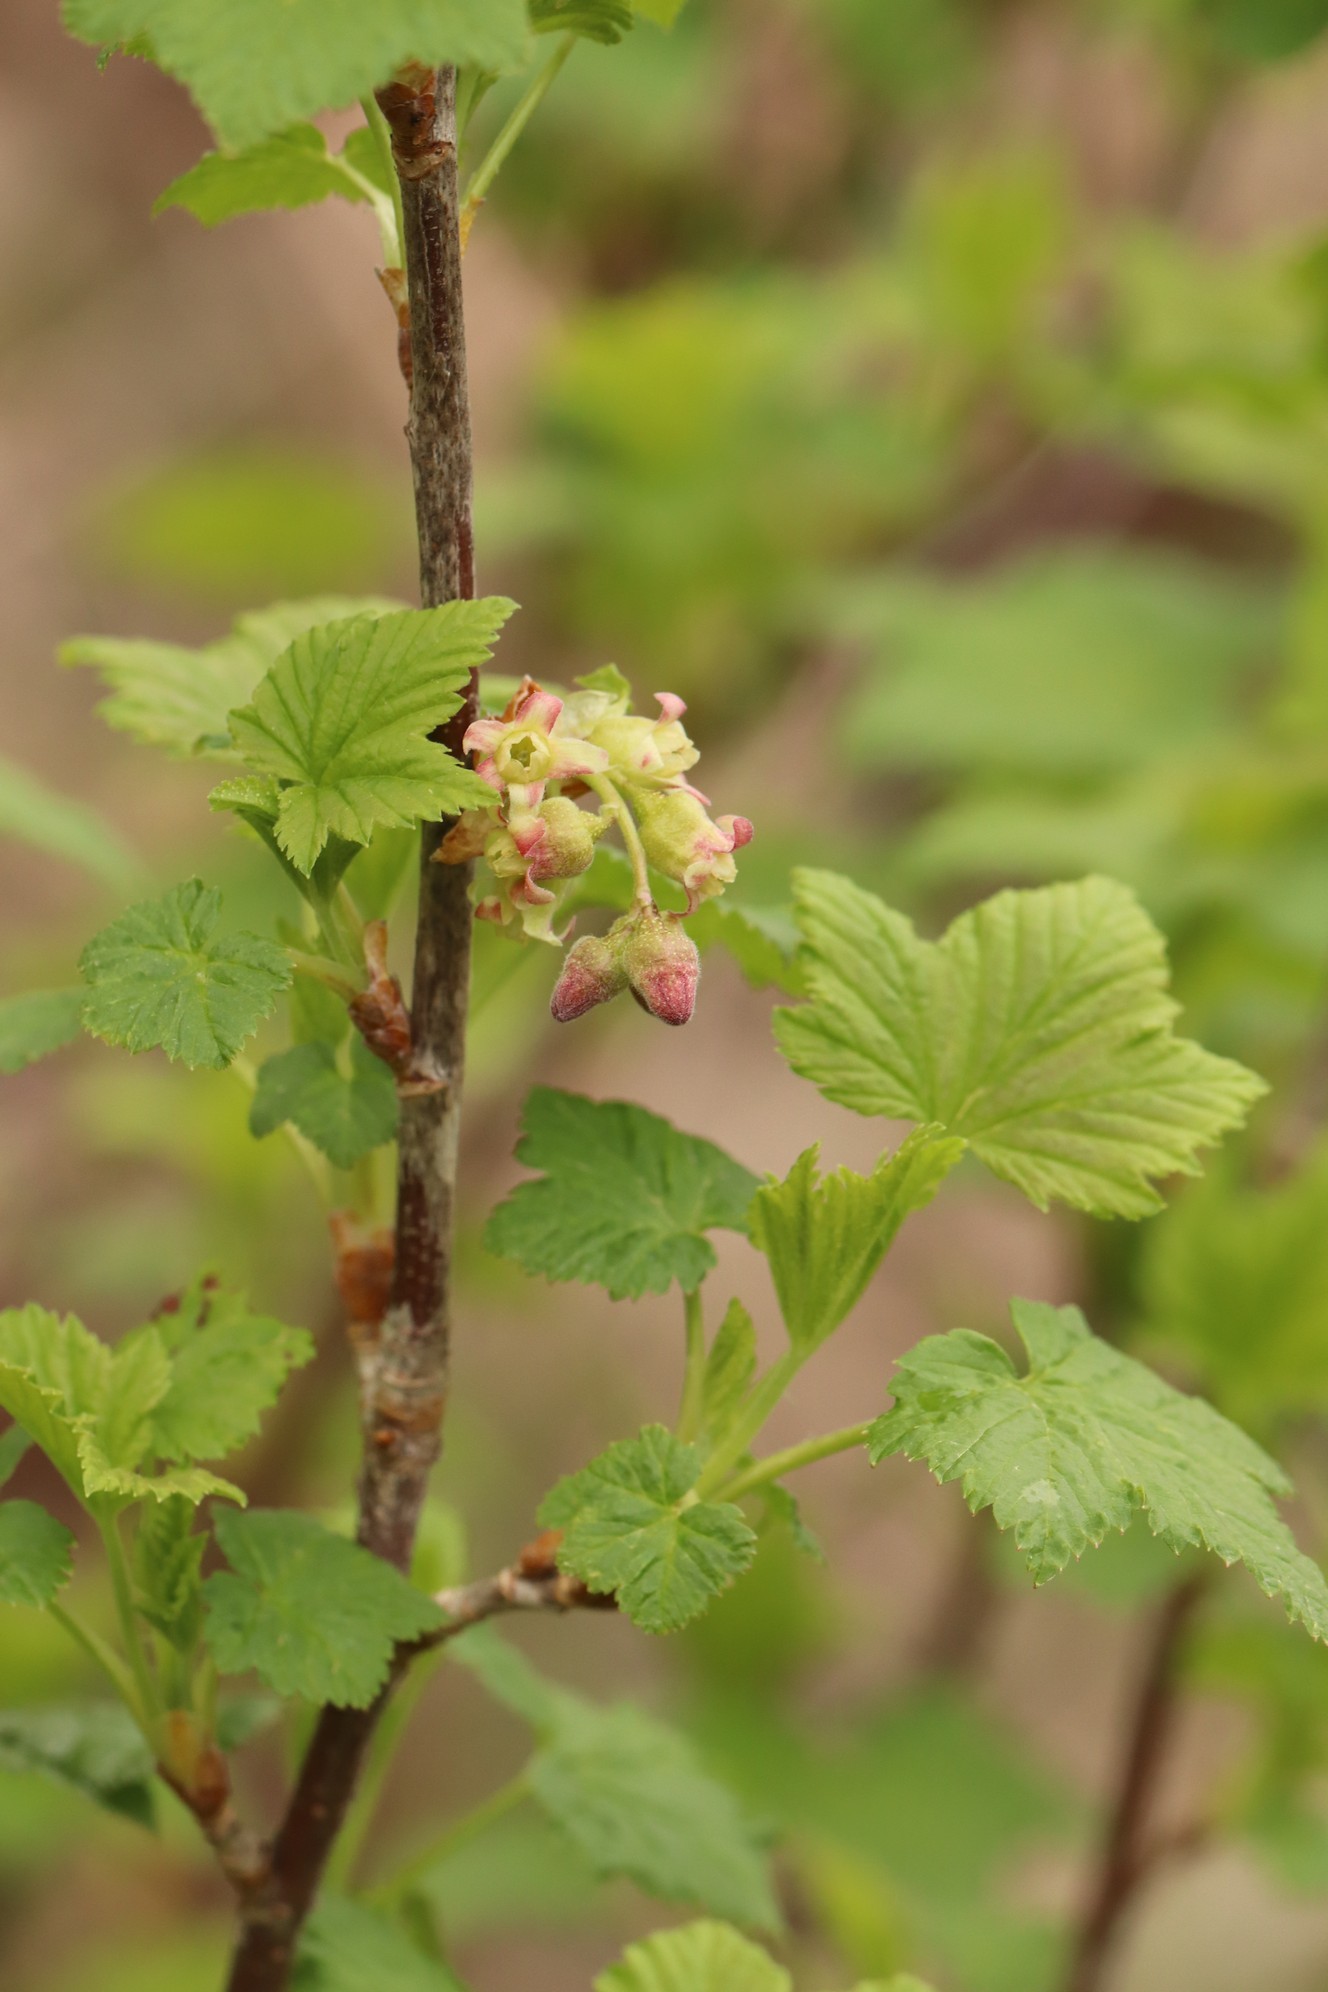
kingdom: Plantae
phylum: Tracheophyta
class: Magnoliopsida
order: Saxifragales
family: Grossulariaceae
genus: Ribes
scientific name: Ribes nigrum
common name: Black currant
